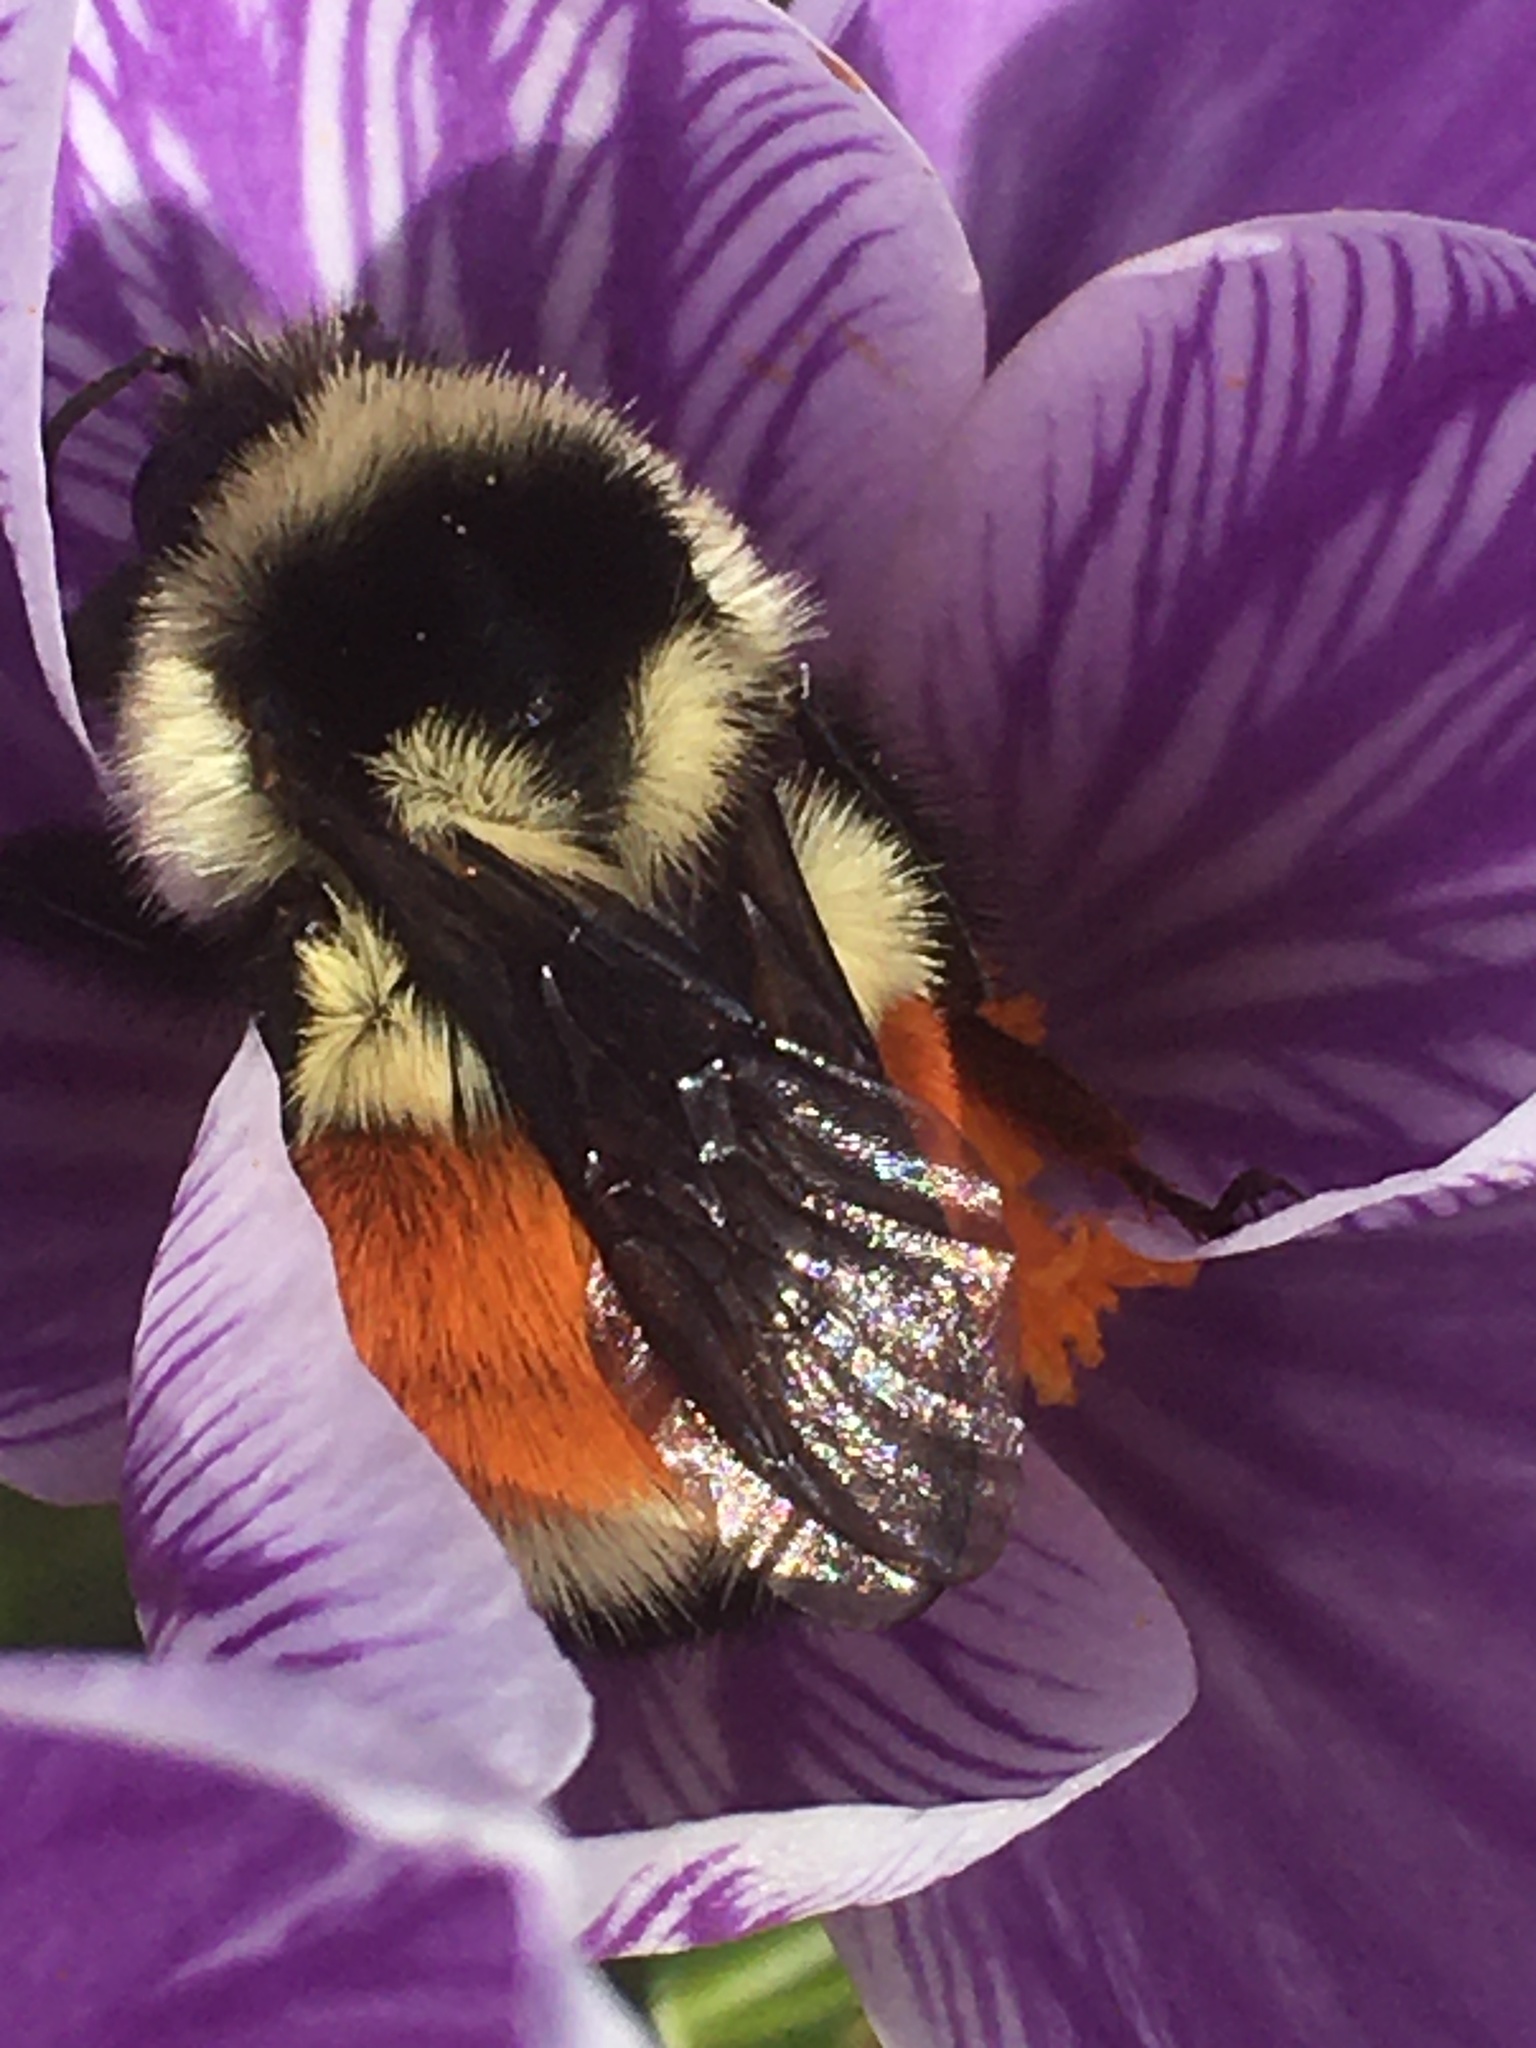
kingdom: Animalia
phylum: Arthropoda
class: Insecta
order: Hymenoptera
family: Apidae
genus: Bombus
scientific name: Bombus ternarius
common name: Tri-colored bumble bee
